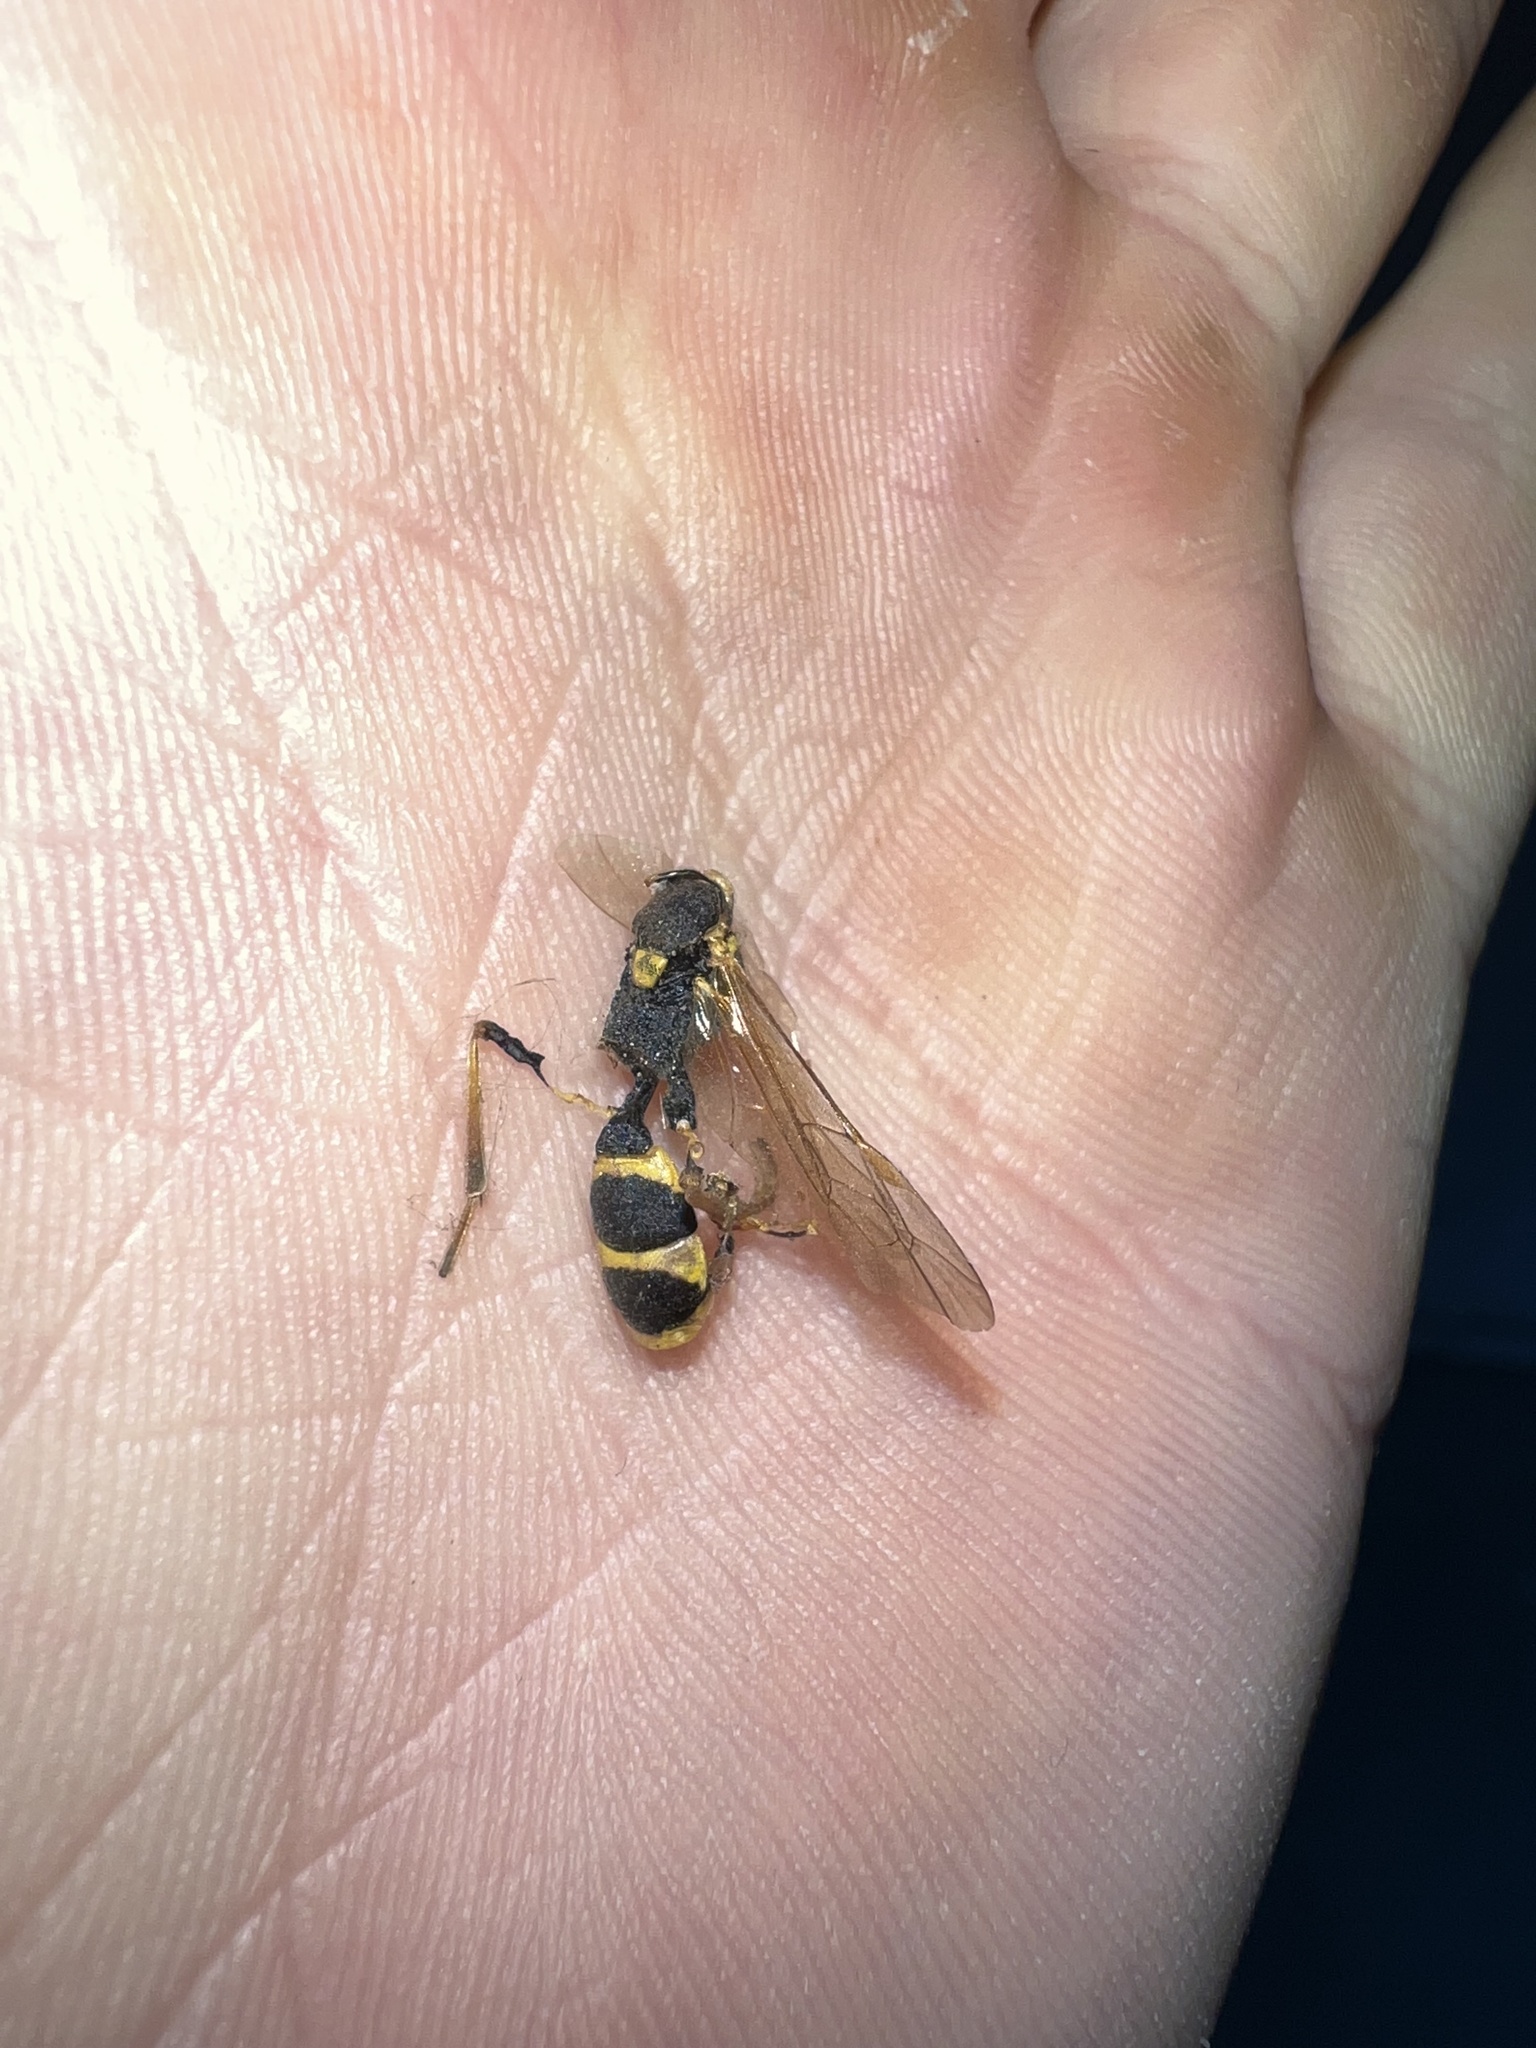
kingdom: Animalia
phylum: Arthropoda
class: Insecta
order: Hymenoptera
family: Ichneumonidae
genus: Amblyteles
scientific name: Amblyteles armatorius
